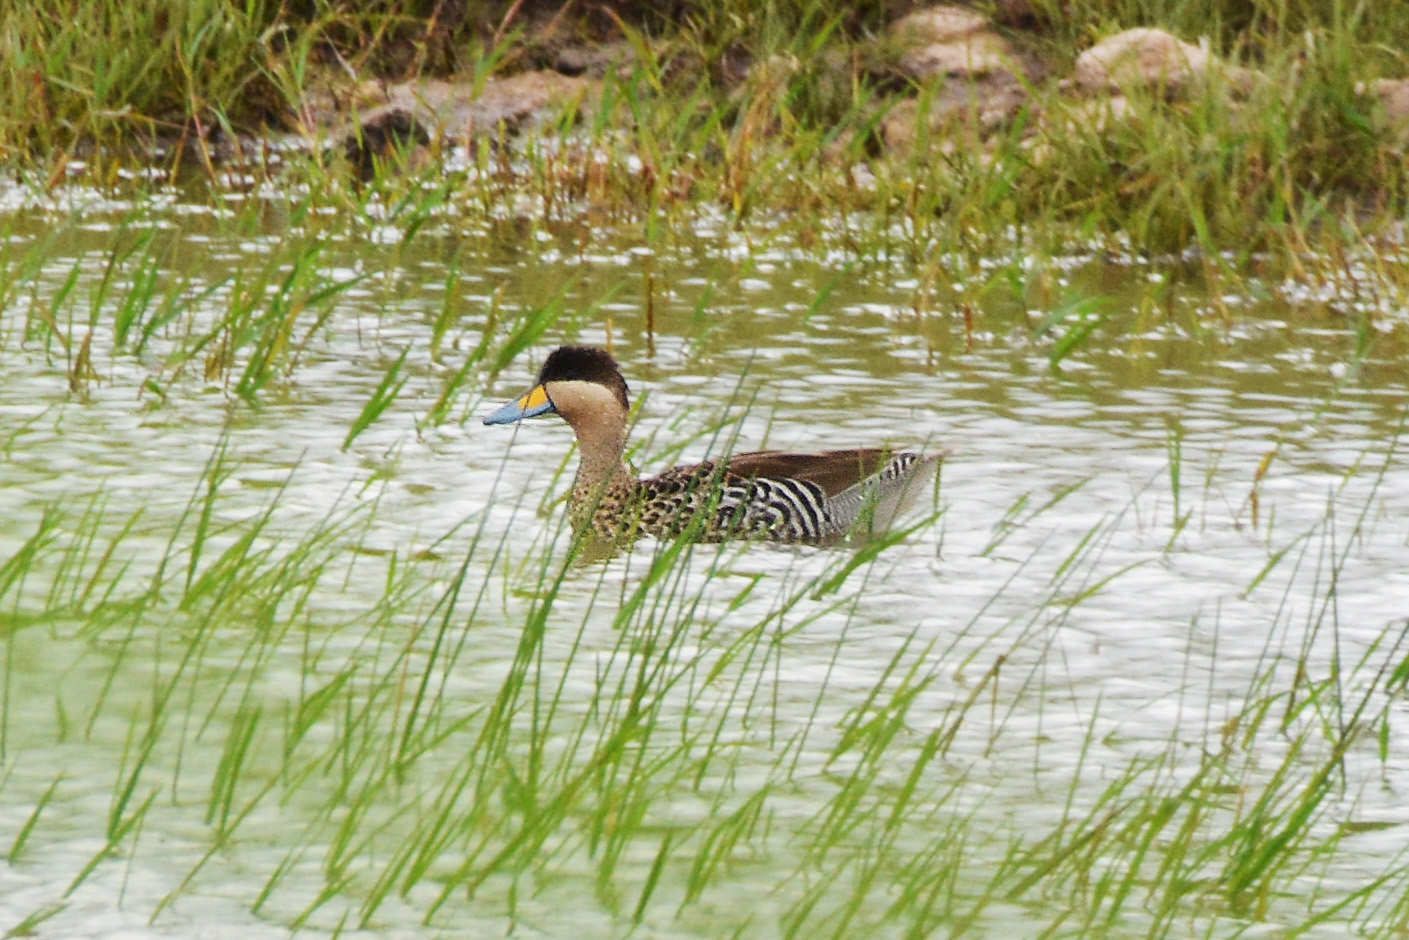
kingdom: Animalia
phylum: Chordata
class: Aves
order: Anseriformes
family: Anatidae
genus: Spatula
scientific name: Spatula versicolor
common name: Silver teal
